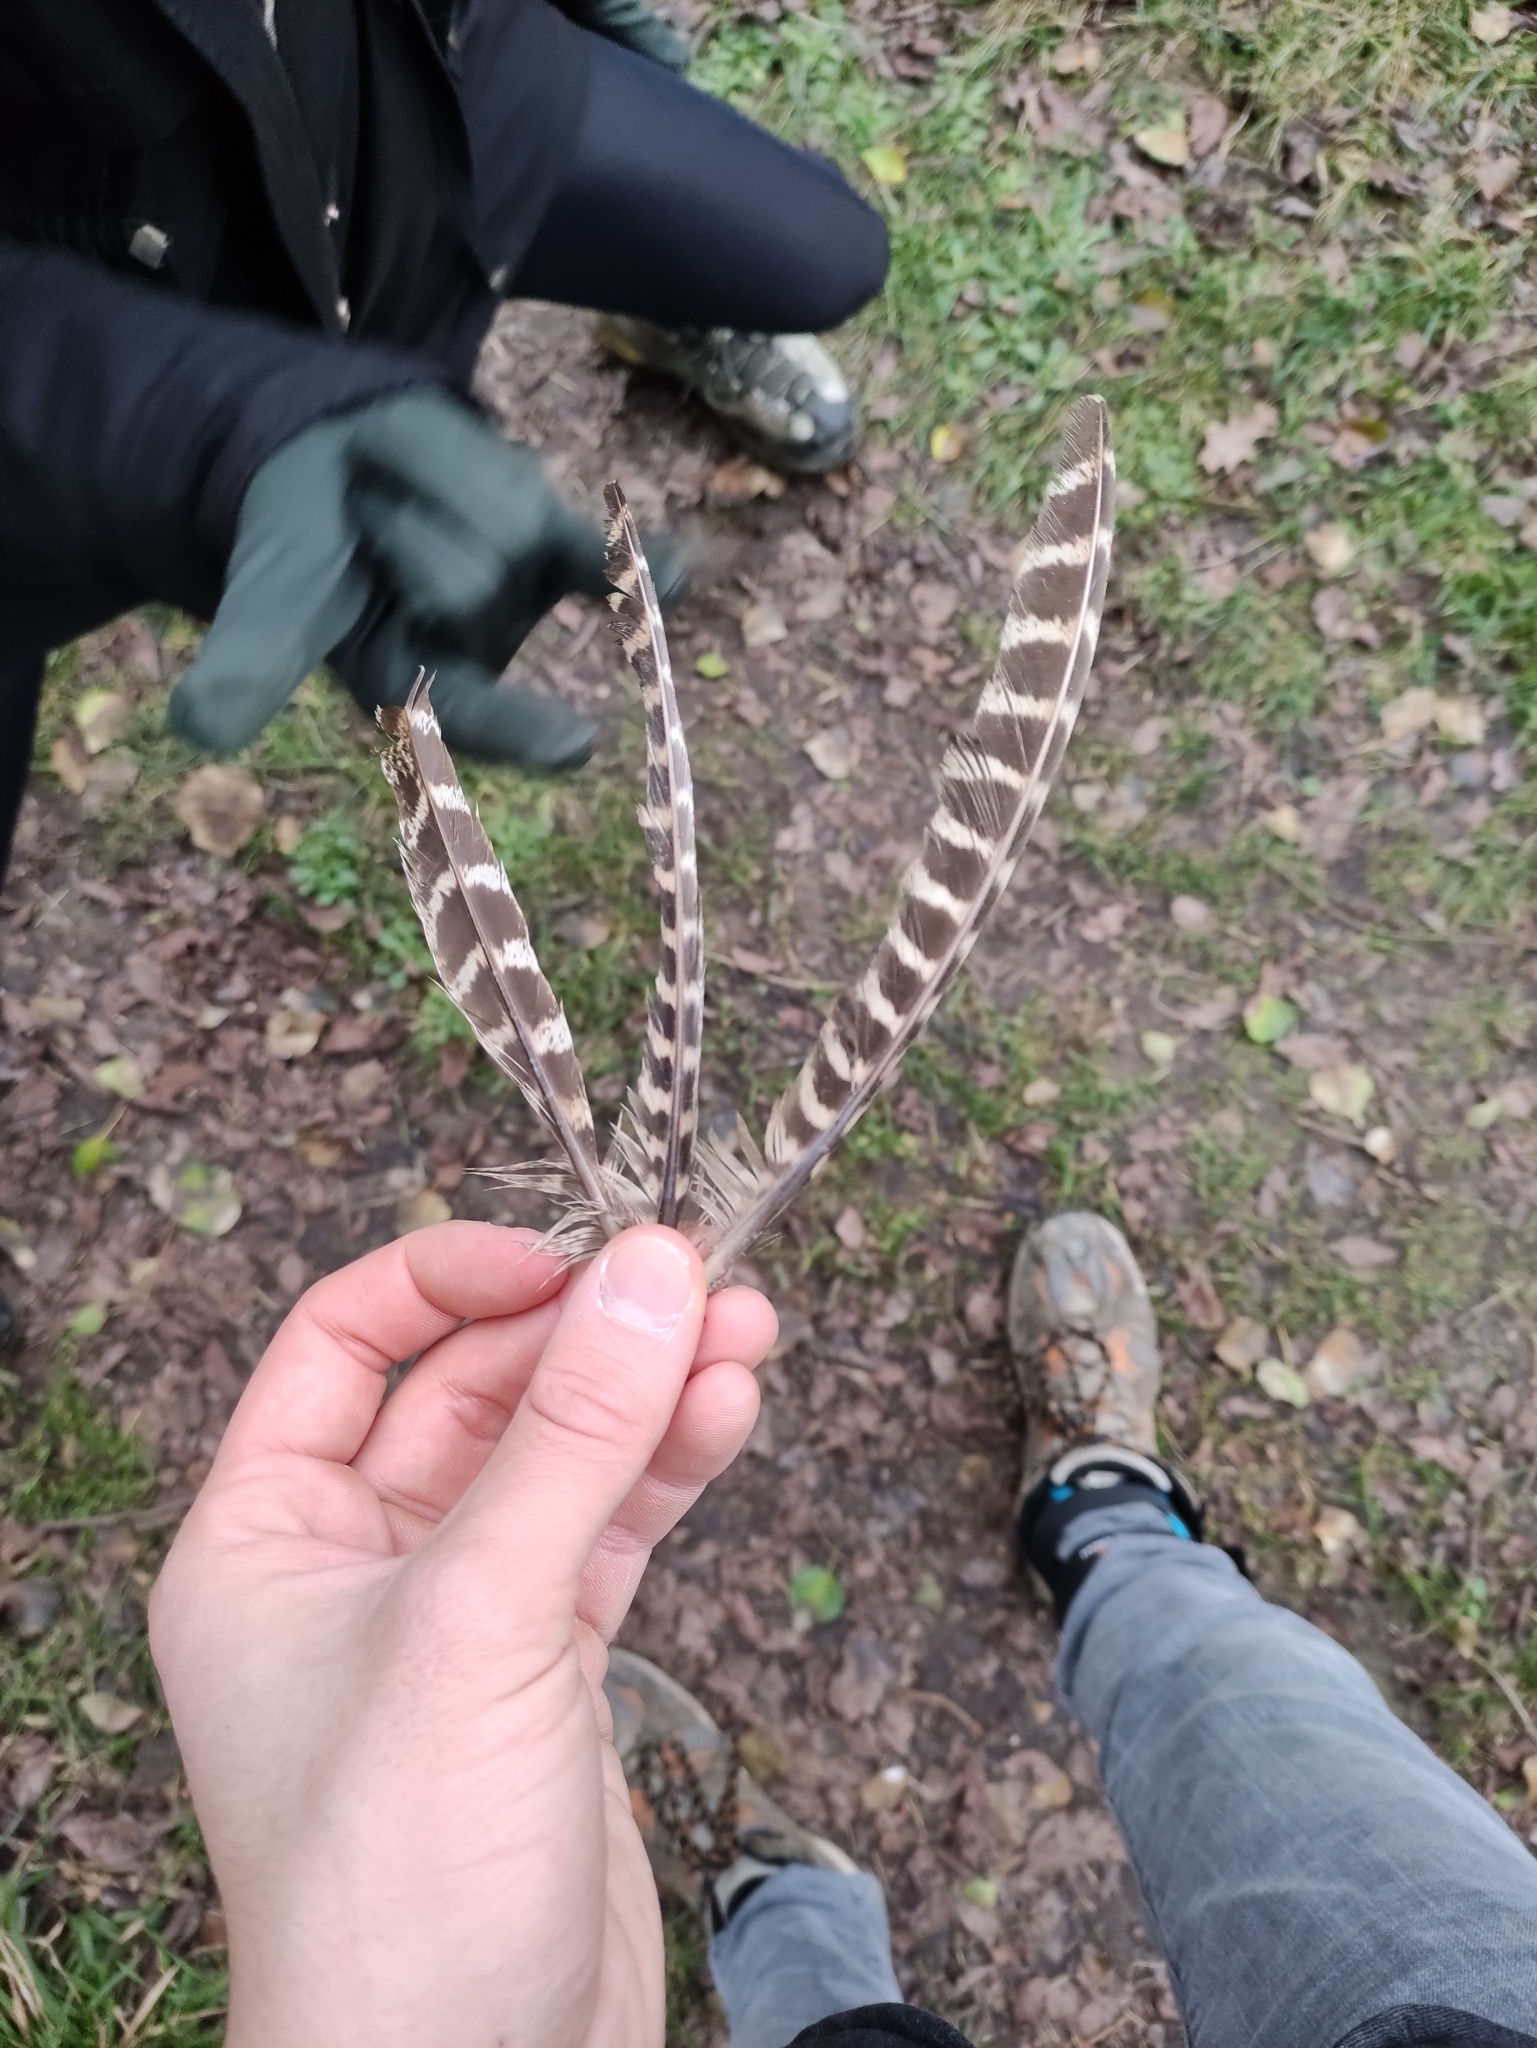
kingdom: Animalia
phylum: Chordata
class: Aves
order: Galliformes
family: Phasianidae
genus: Phasianus
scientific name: Phasianus colchicus
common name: Common pheasant
